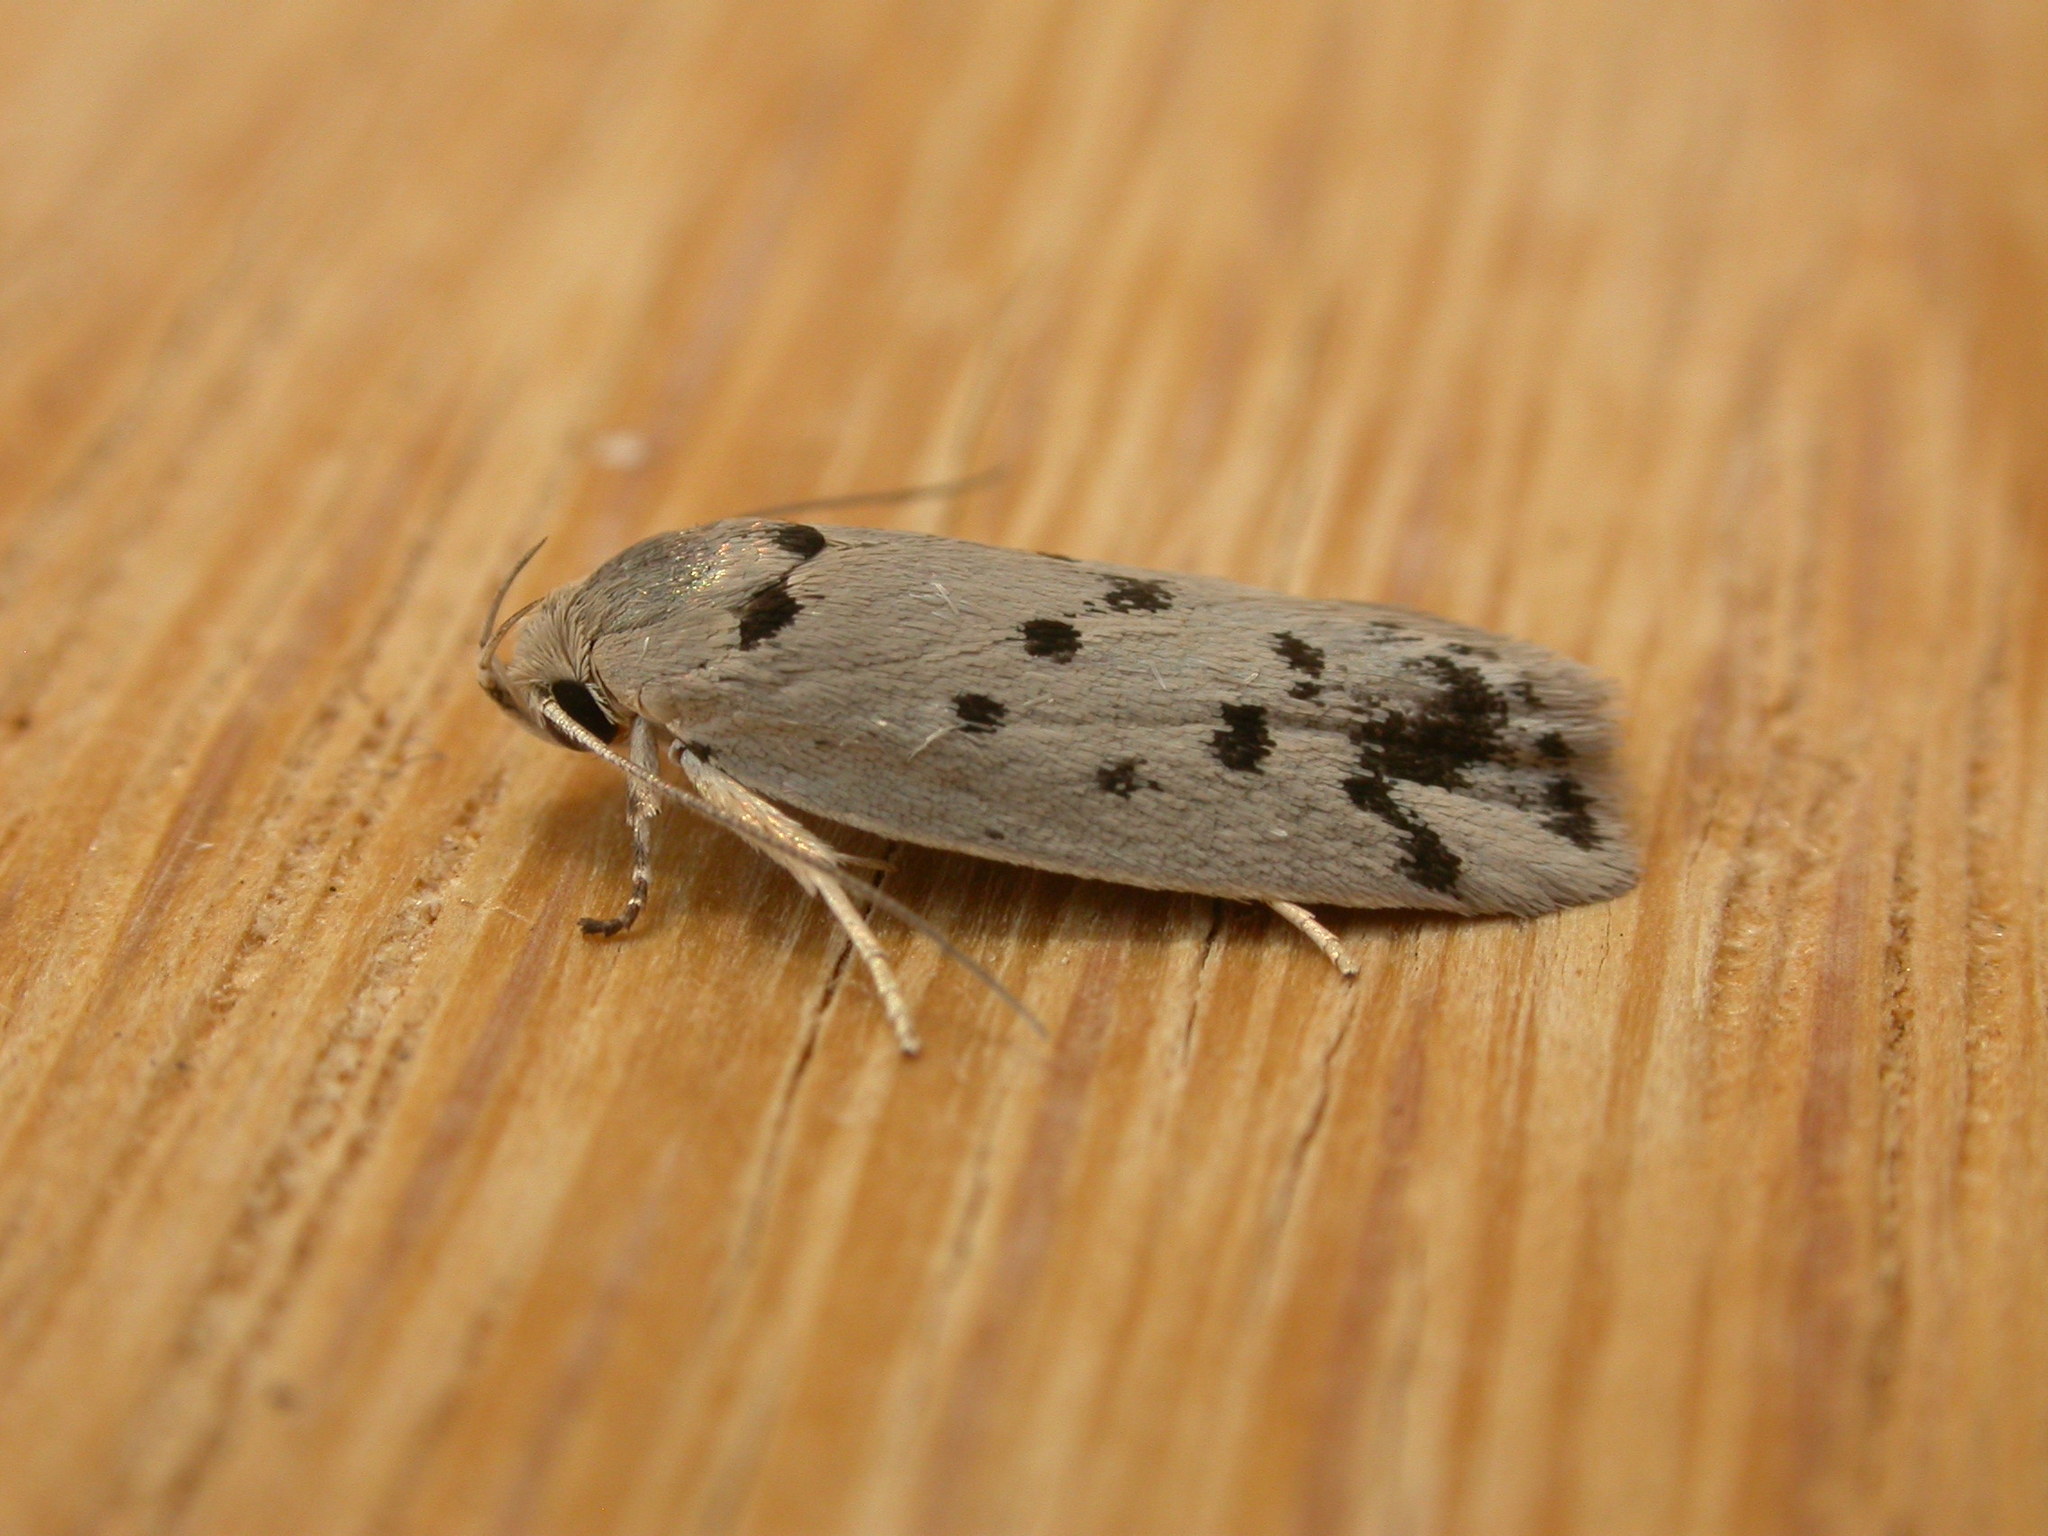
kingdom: Animalia
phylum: Arthropoda
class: Insecta
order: Lepidoptera
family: Oecophoridae
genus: Ericibdela
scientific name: Ericibdela delotis
